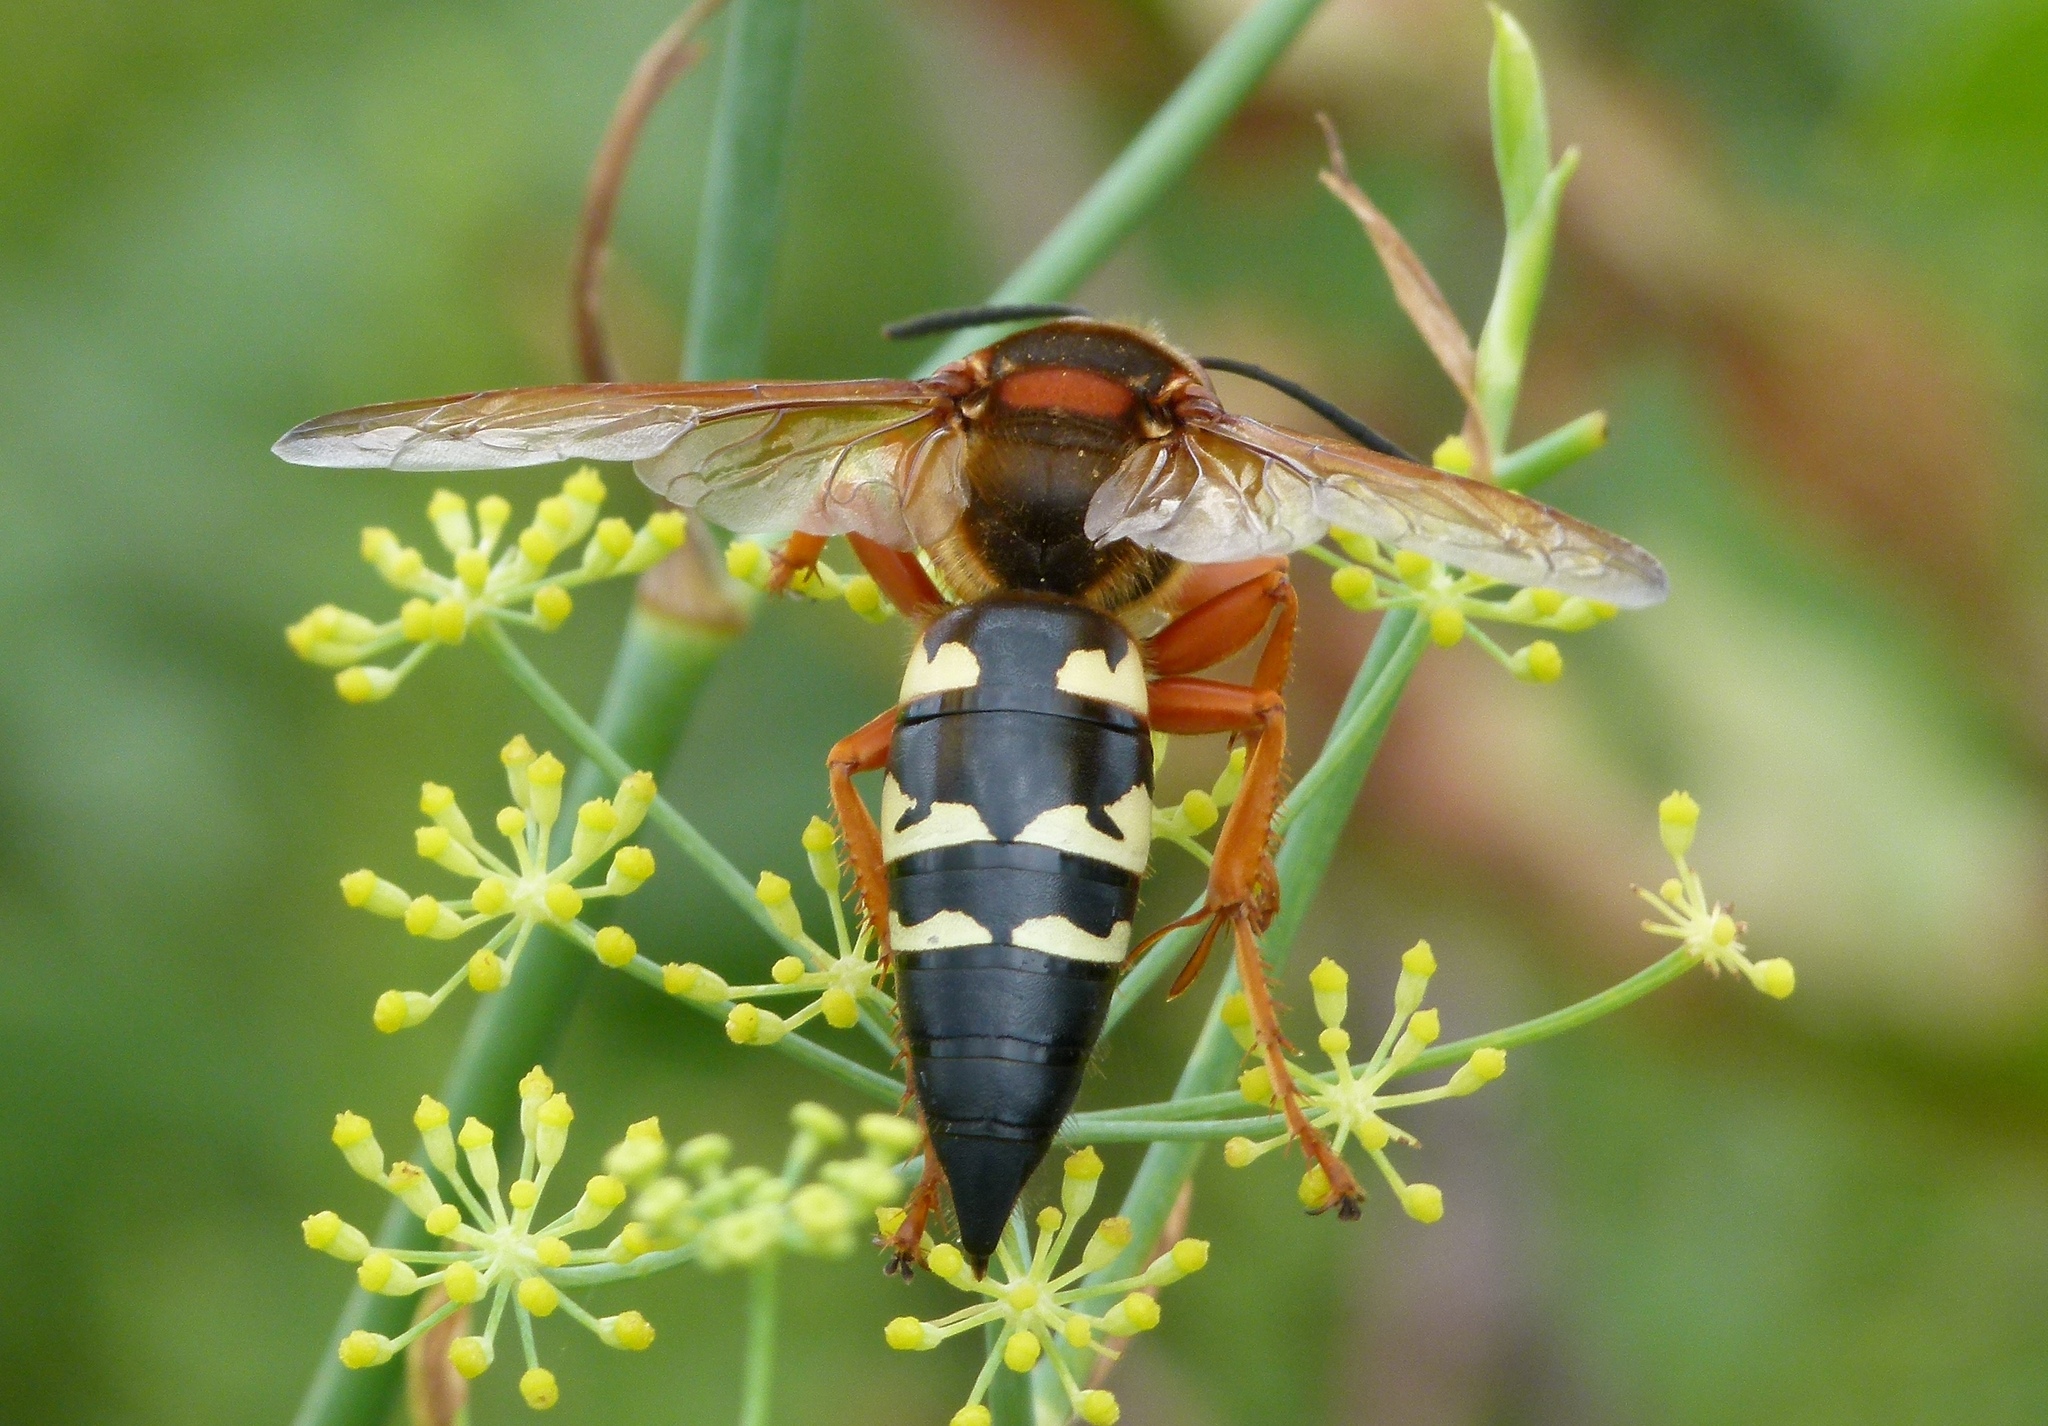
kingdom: Animalia
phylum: Arthropoda
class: Insecta
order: Hymenoptera
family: Crabronidae
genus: Sphecius
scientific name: Sphecius speciosus
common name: Cicada killer
